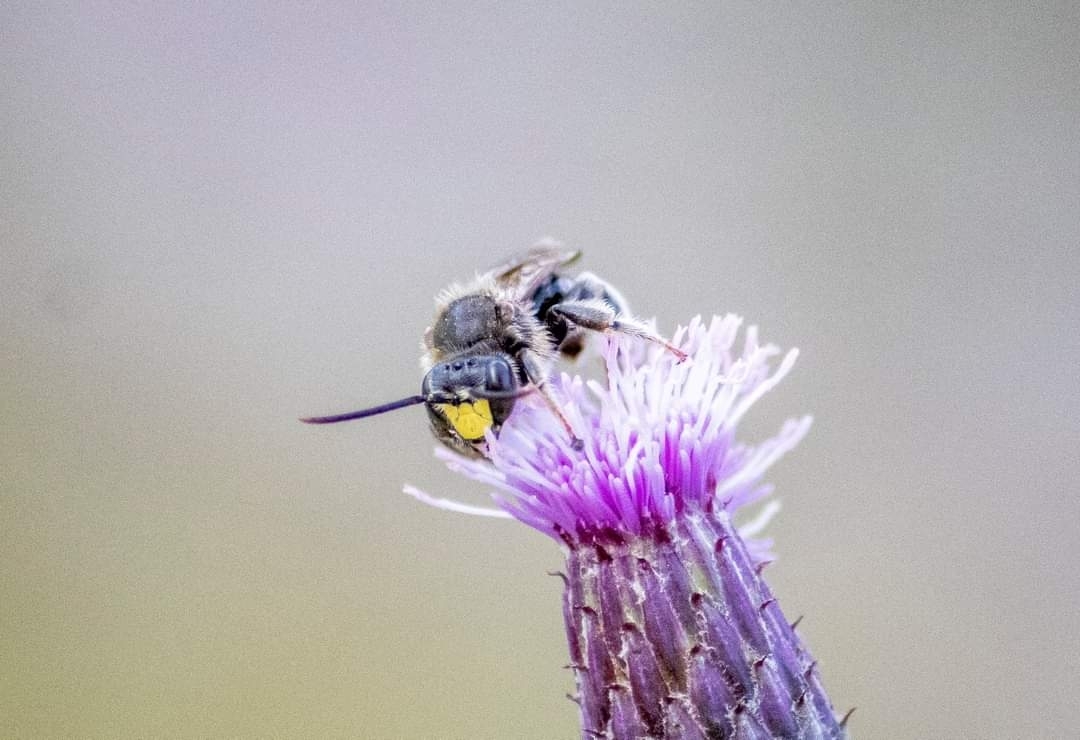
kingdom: Animalia
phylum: Arthropoda
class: Insecta
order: Hymenoptera
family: Melittidae
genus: Macropis
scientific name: Macropis europaea
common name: Yellow loosestrife bee
